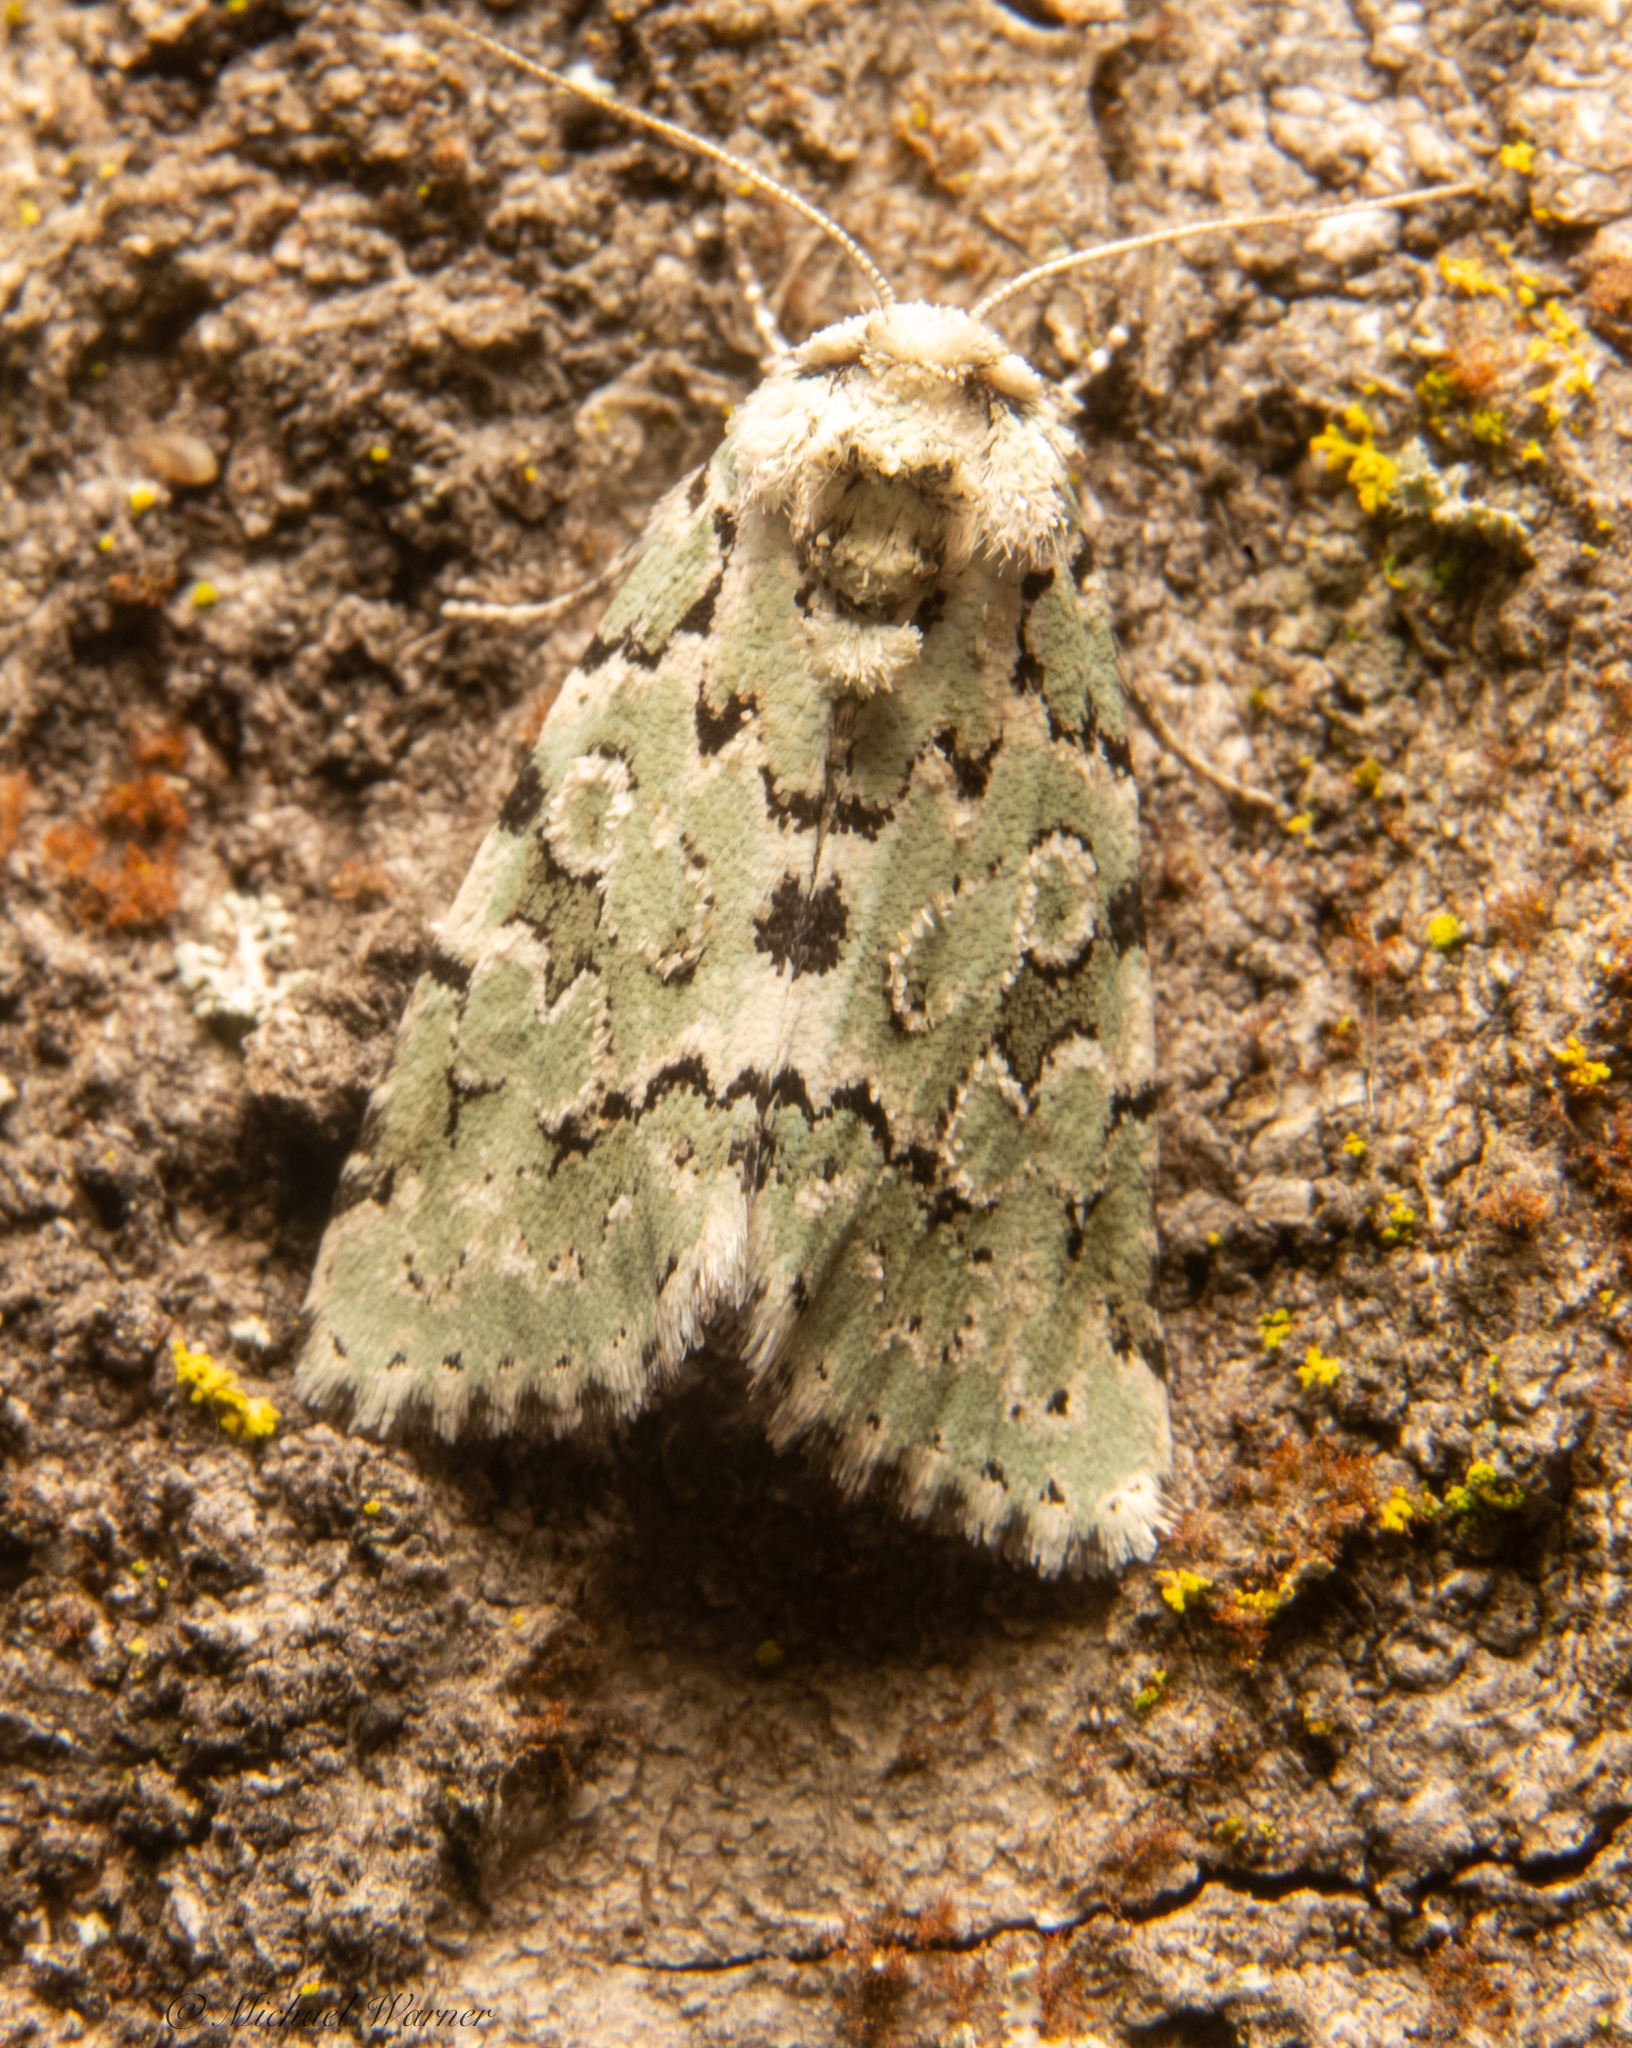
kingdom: Animalia
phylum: Arthropoda
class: Insecta
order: Lepidoptera
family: Noctuidae
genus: Bryolymnia
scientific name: Bryolymnia viridata
